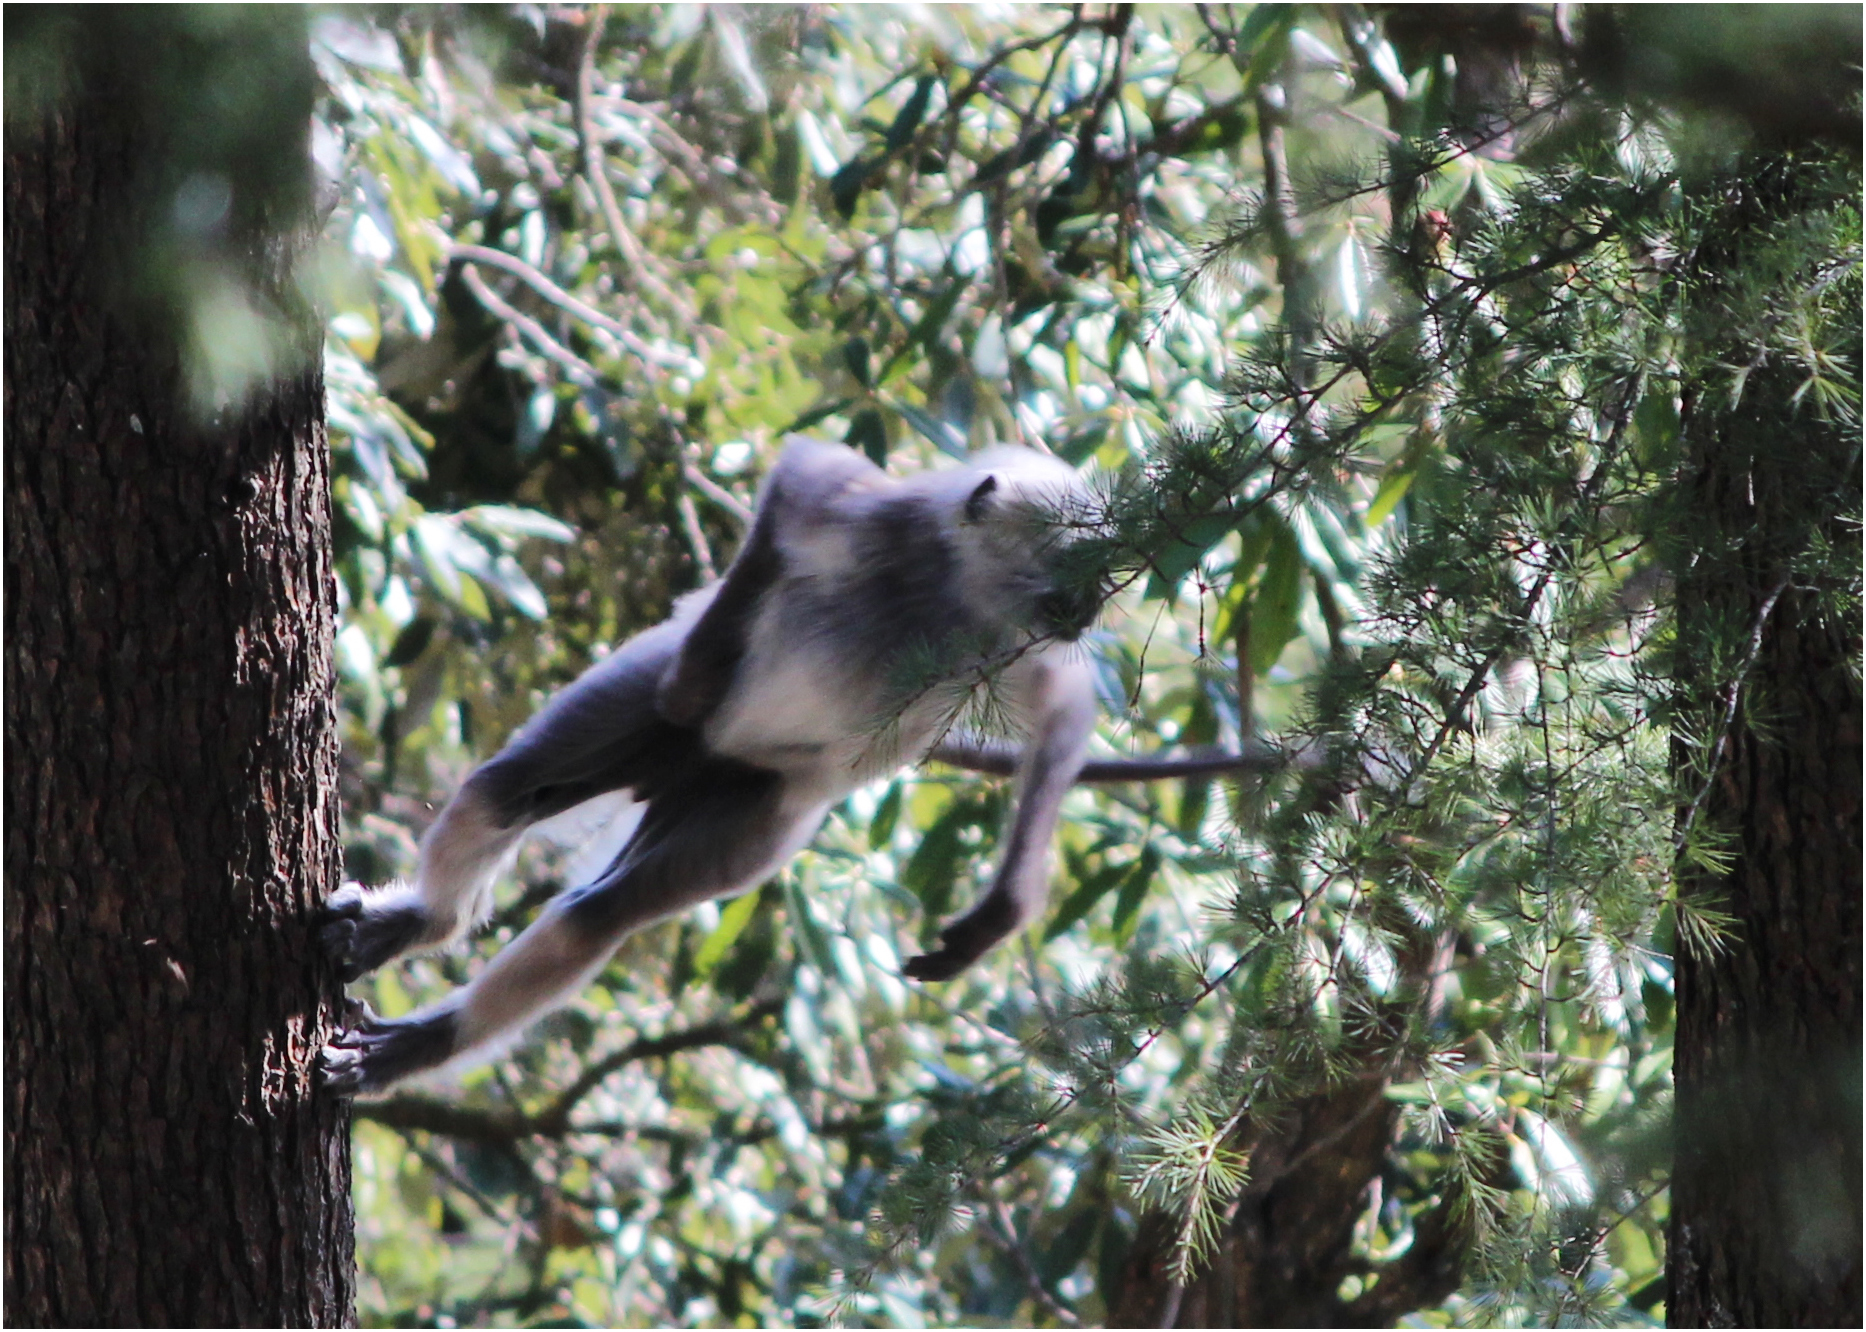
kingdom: Animalia
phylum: Chordata
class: Mammalia
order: Primates
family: Cercopithecidae
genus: Semnopithecus
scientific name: Semnopithecus schistaceus
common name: Nepal gray langur
